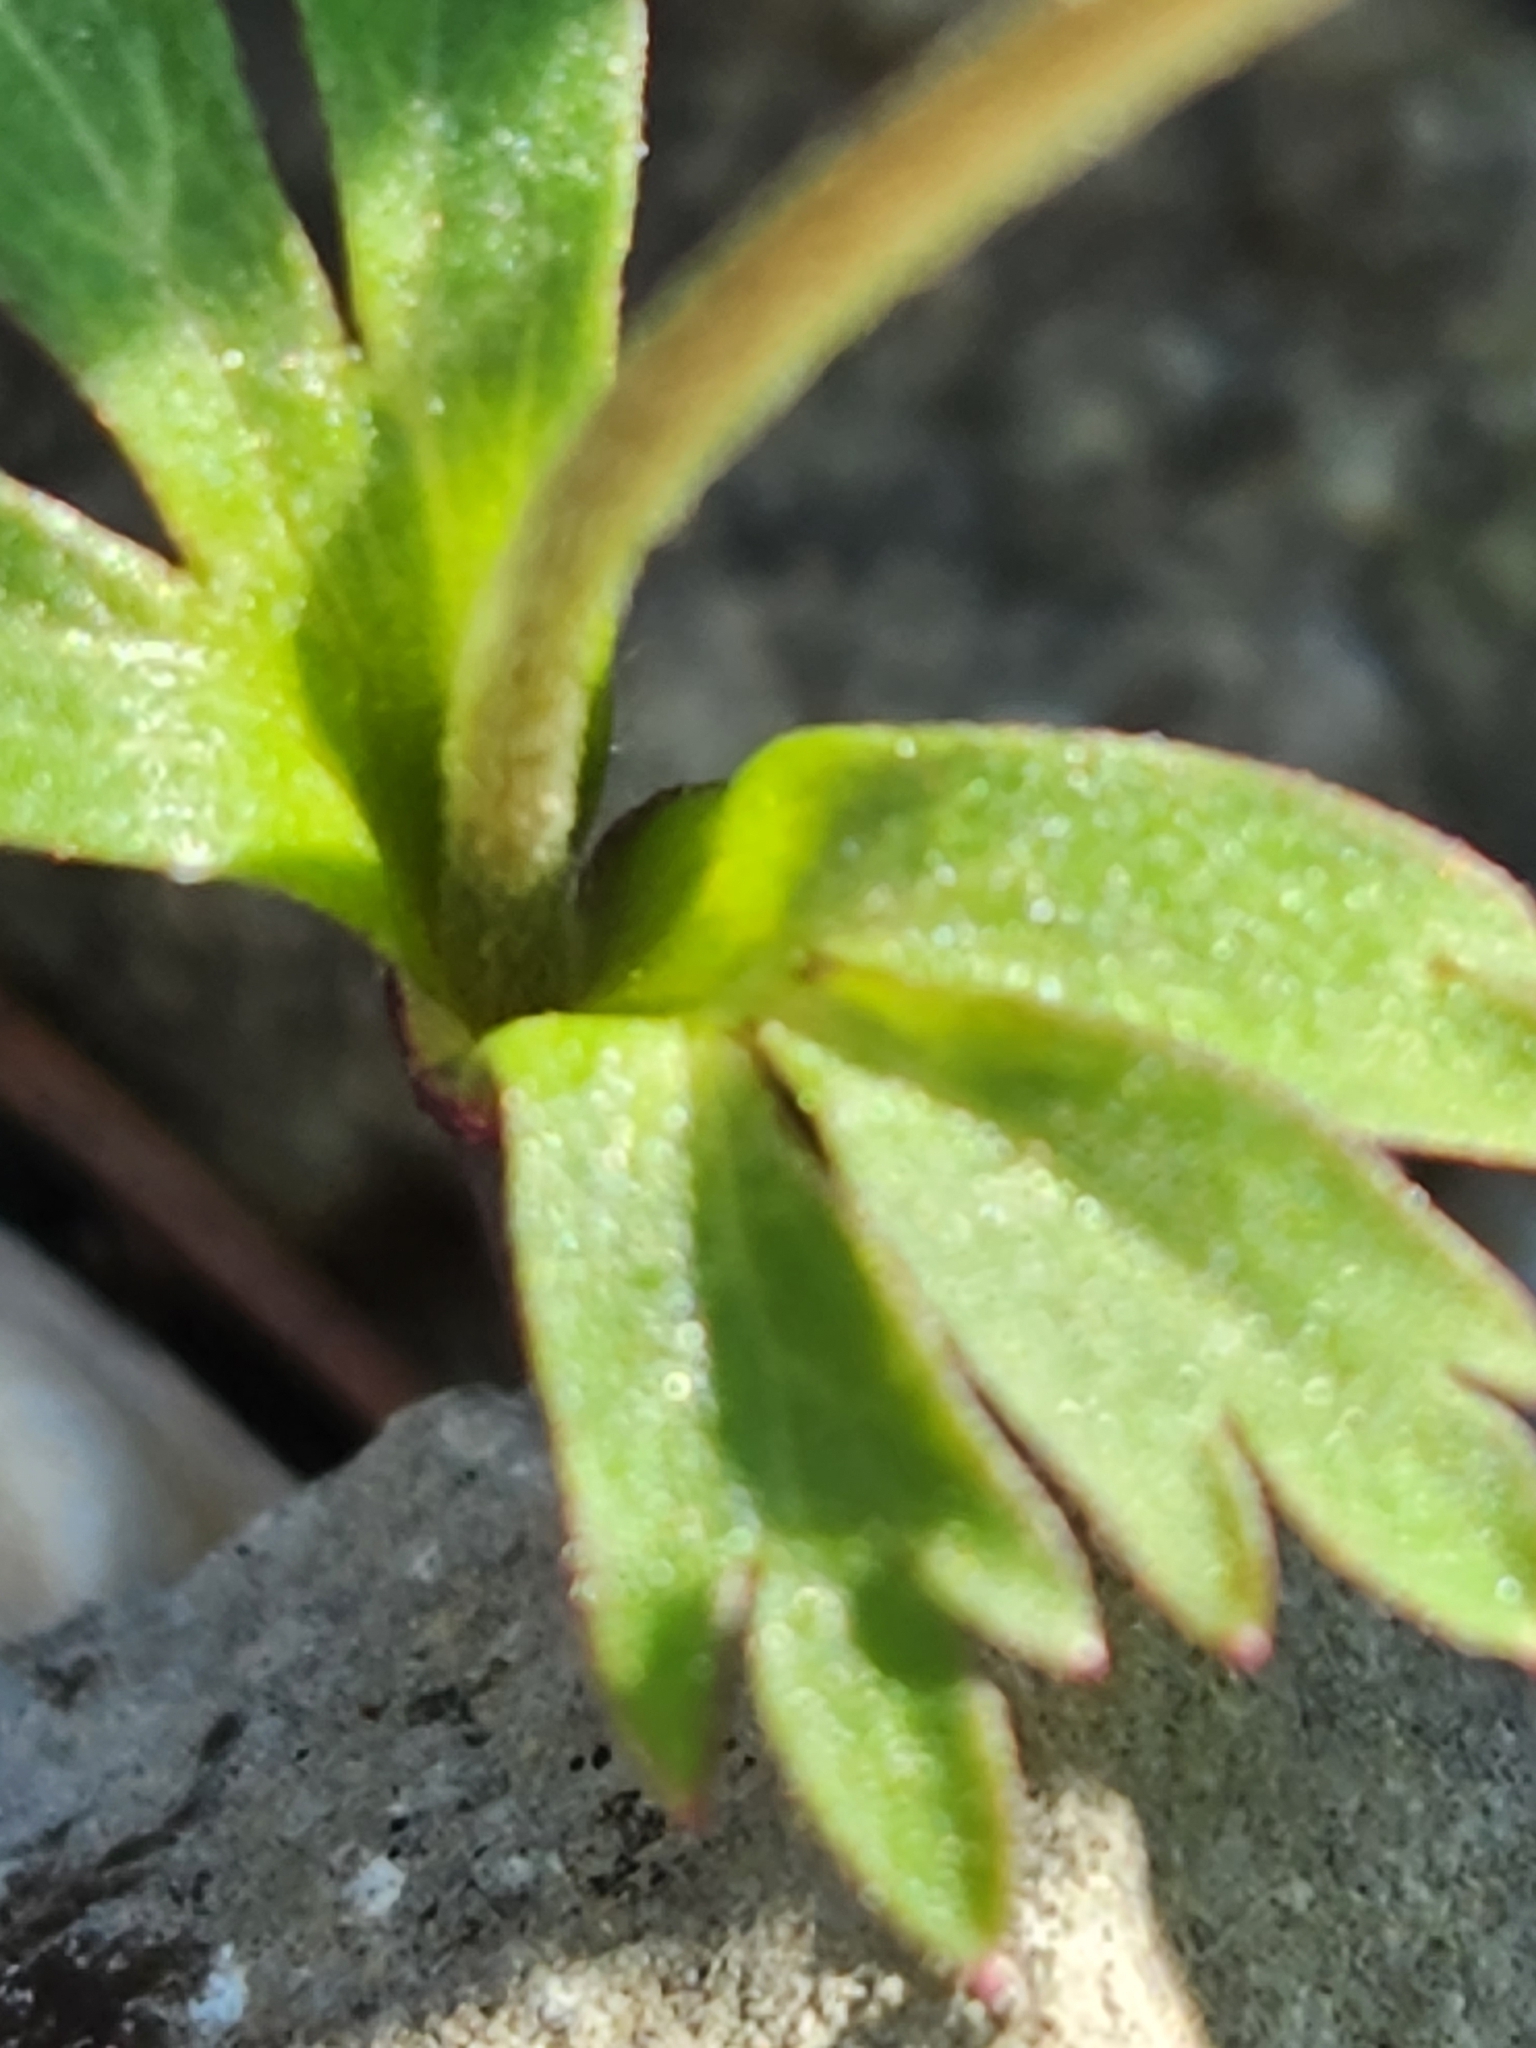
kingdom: Plantae
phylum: Tracheophyta
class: Magnoliopsida
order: Ranunculales
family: Ranunculaceae
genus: Anemone
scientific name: Anemone edwardsiana
